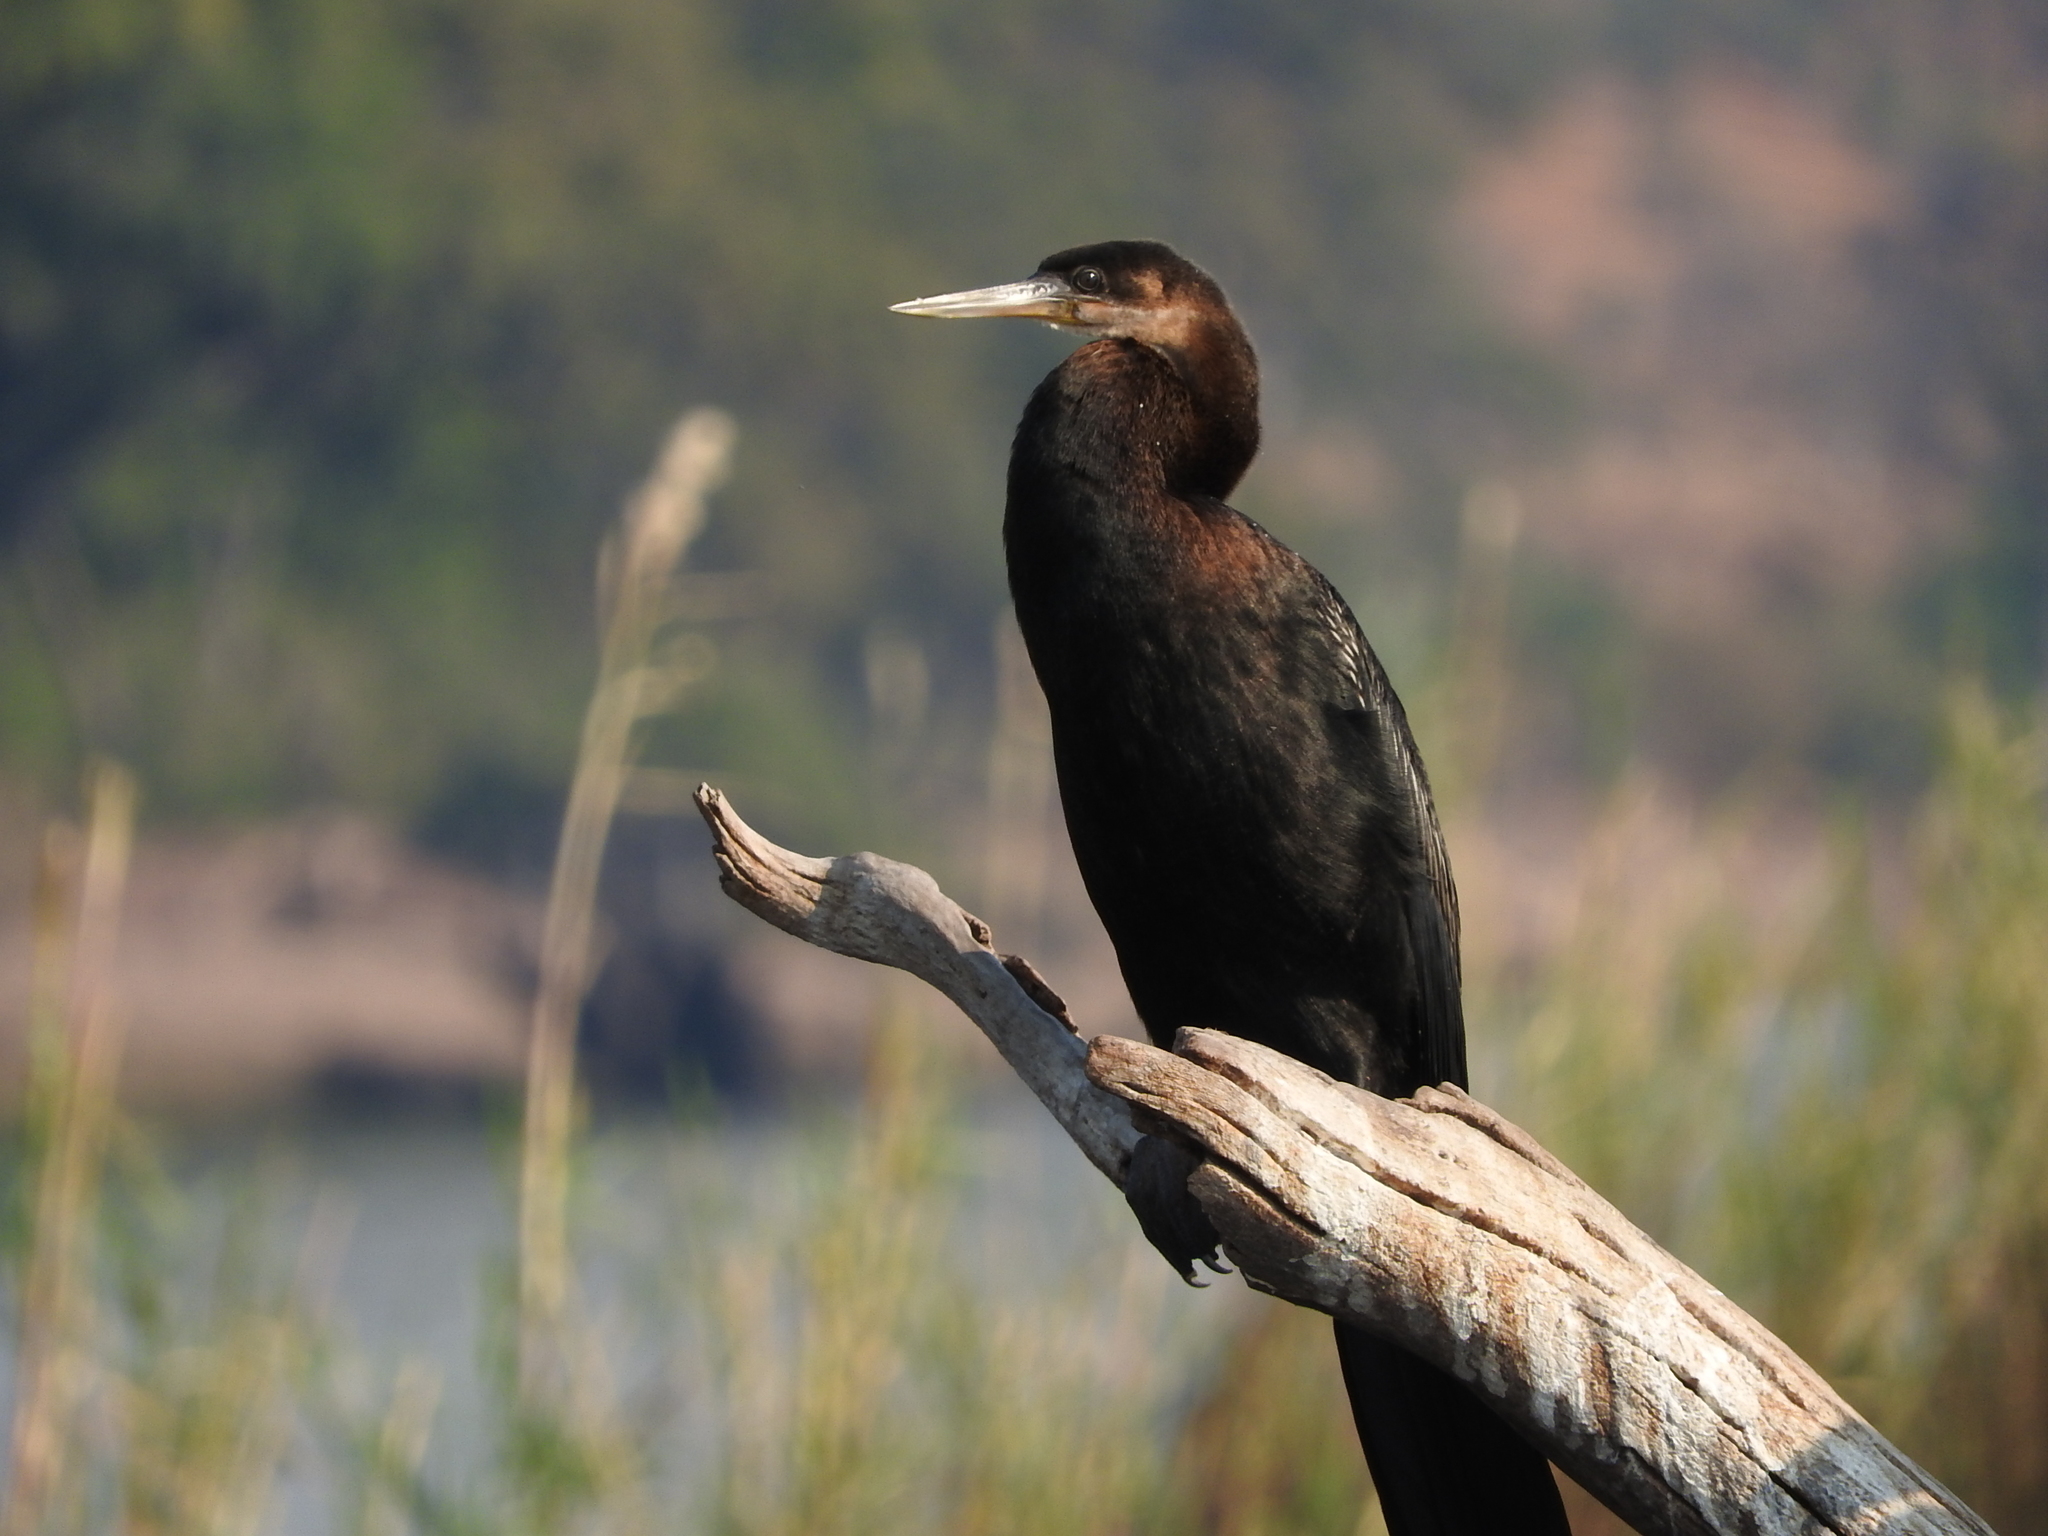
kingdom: Animalia
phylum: Chordata
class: Aves
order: Suliformes
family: Anhingidae
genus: Anhinga
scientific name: Anhinga rufa
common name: African darter
